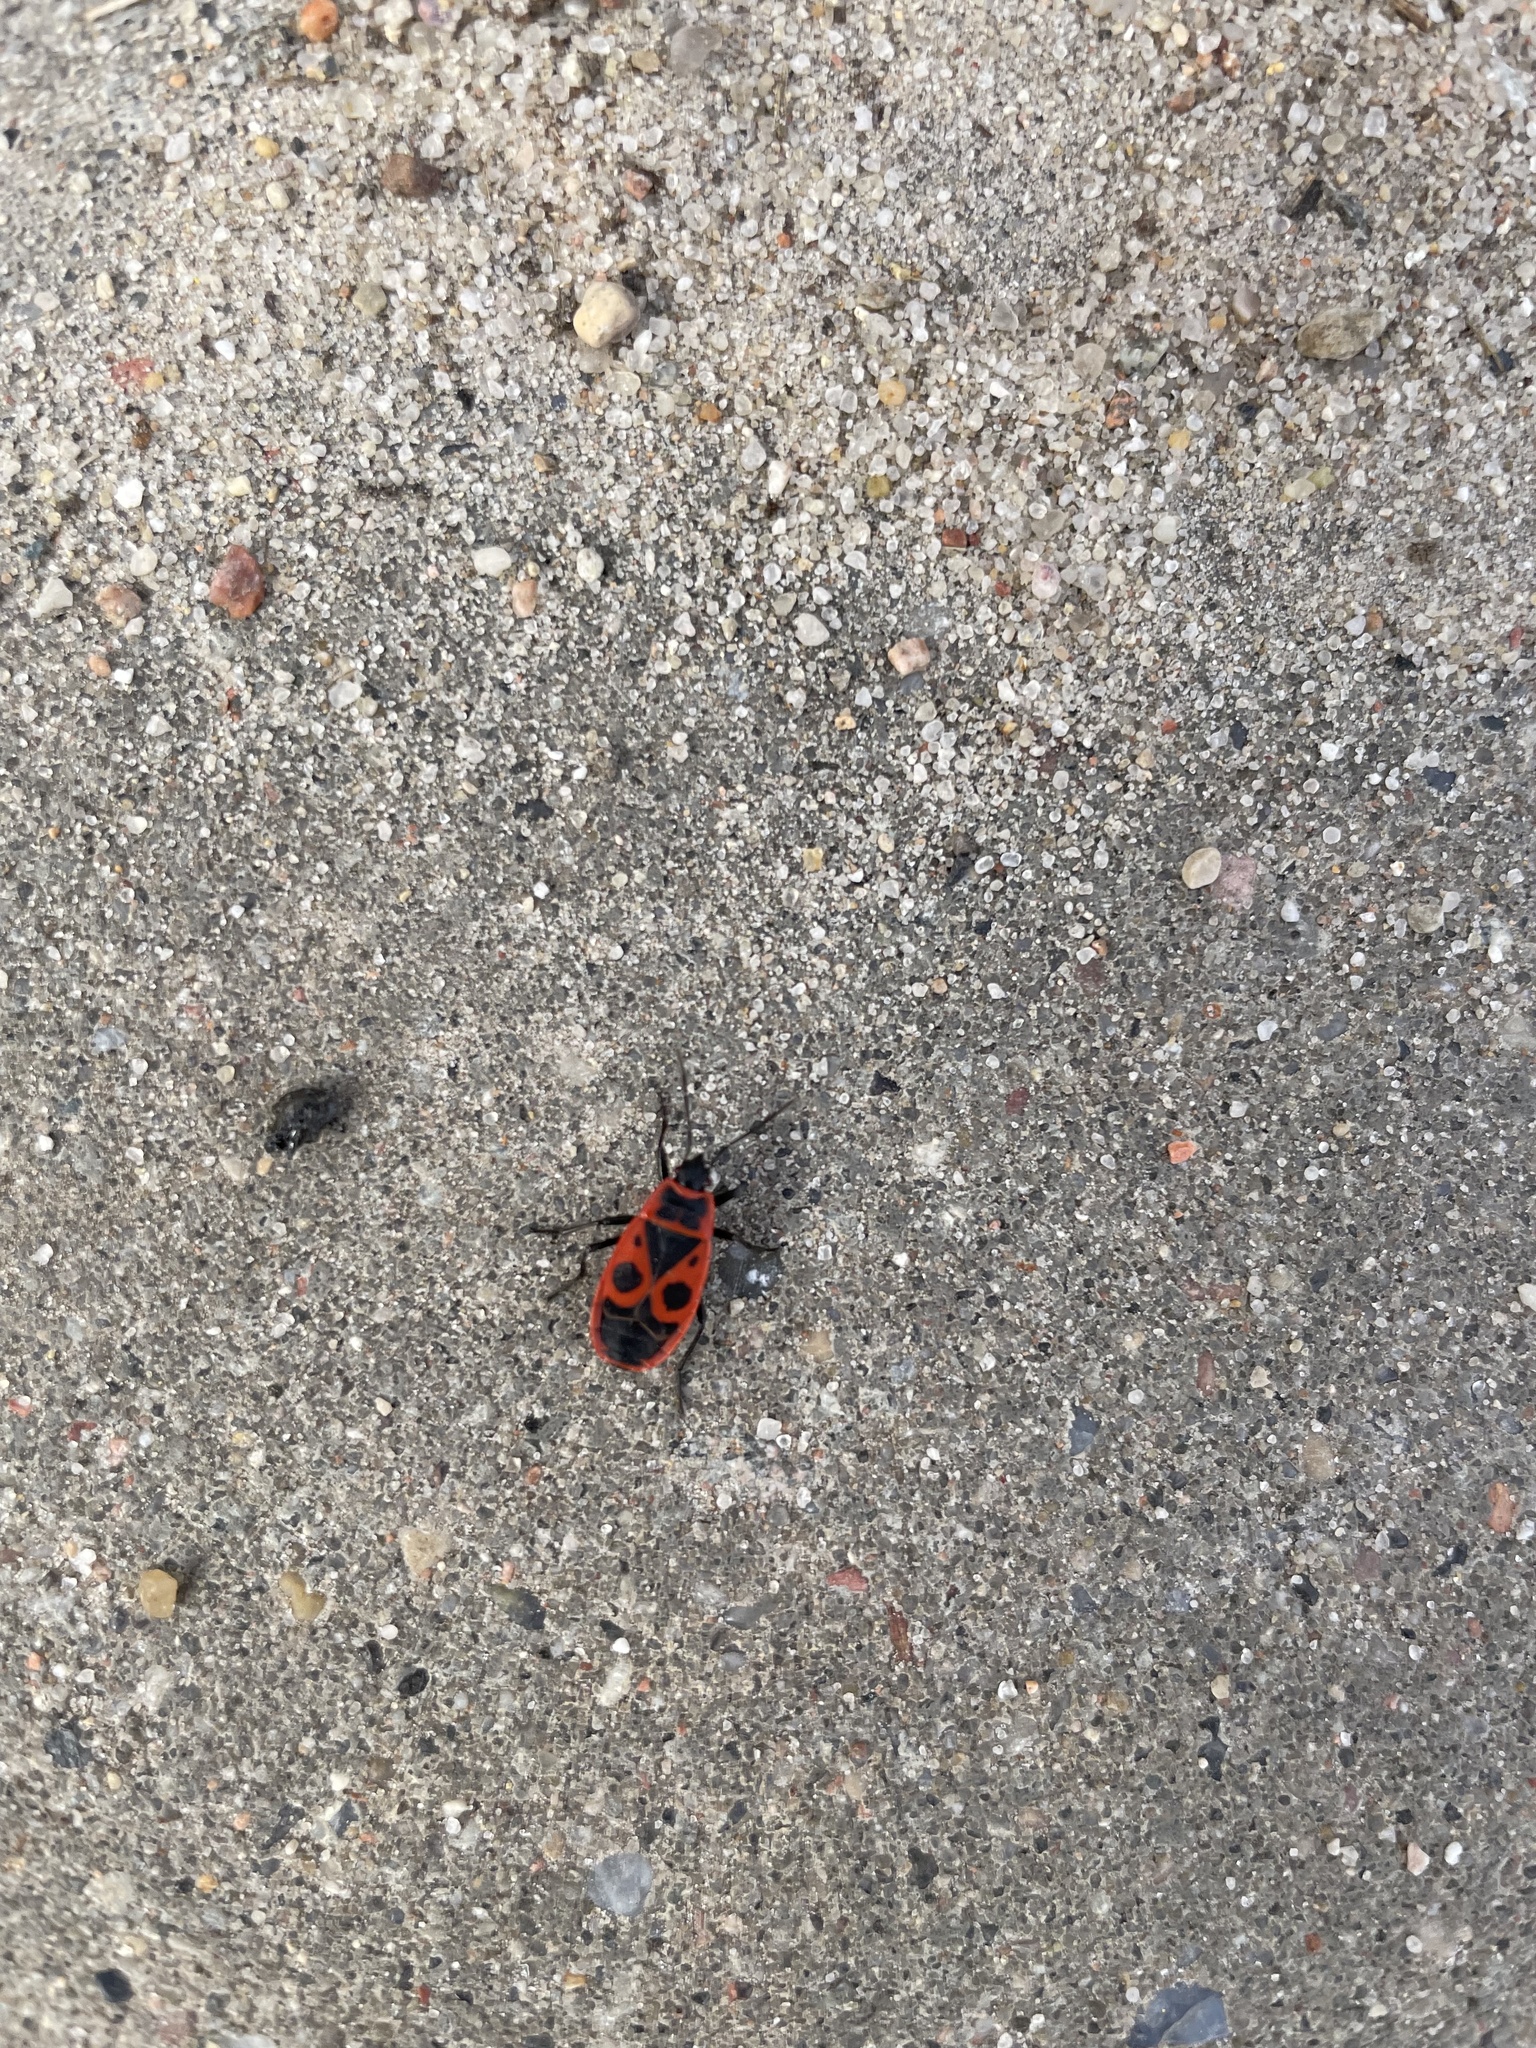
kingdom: Animalia
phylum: Arthropoda
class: Insecta
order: Hemiptera
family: Pyrrhocoridae
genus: Pyrrhocoris
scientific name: Pyrrhocoris apterus
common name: Firebug
